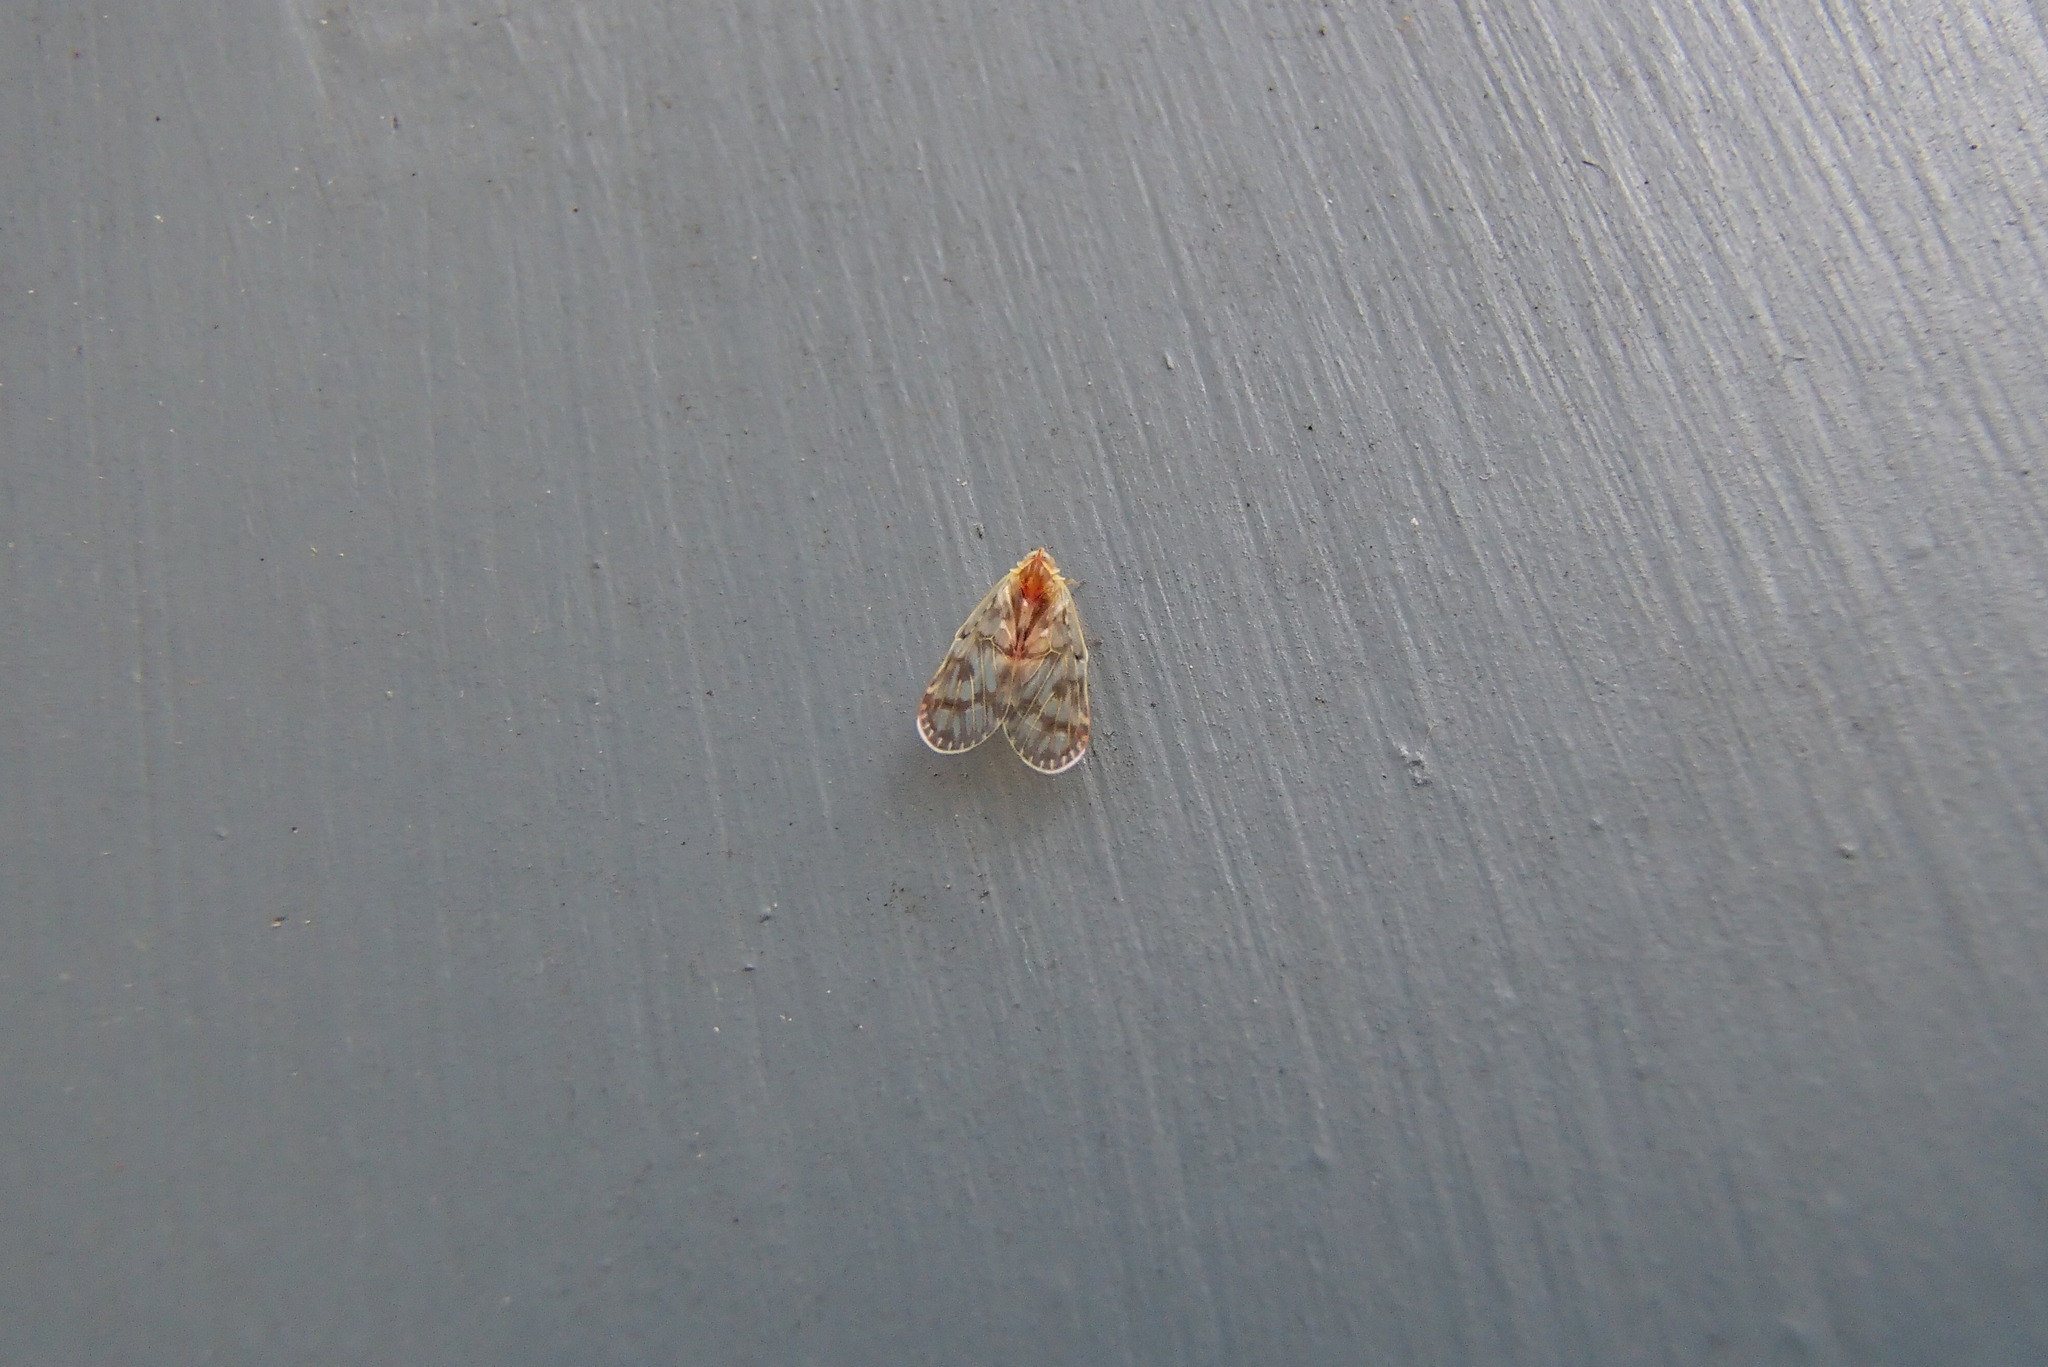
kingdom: Animalia
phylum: Arthropoda
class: Insecta
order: Hemiptera
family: Derbidae
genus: Saccharodite
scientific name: Saccharodite chrysonoe
